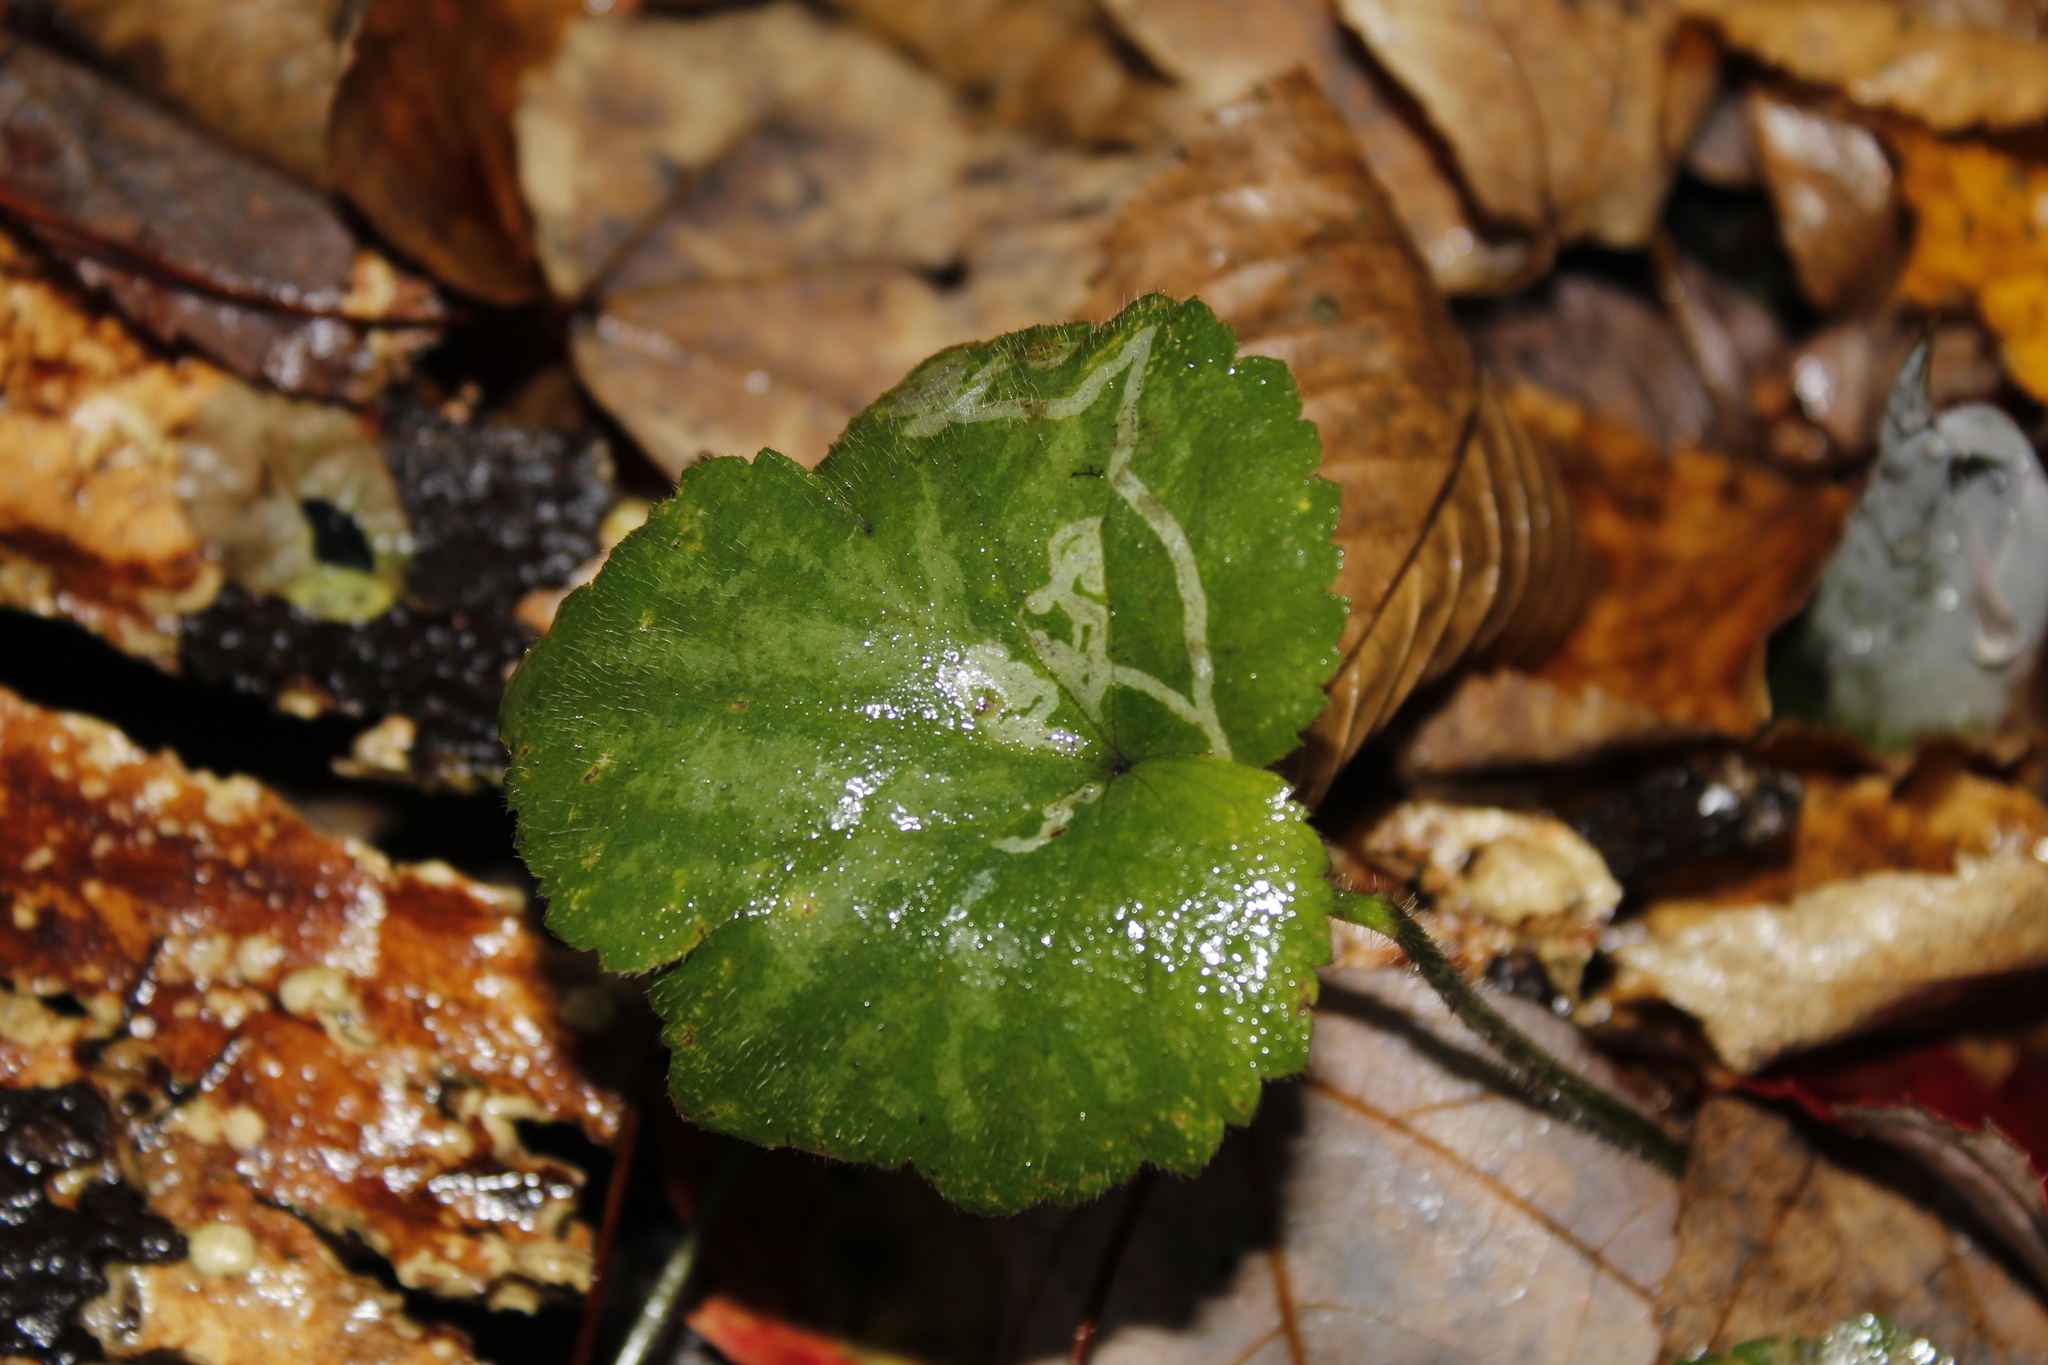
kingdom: Plantae
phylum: Tracheophyta
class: Magnoliopsida
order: Saxifragales
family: Saxifragaceae
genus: Tiarella
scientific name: Tiarella stolonifera
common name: Stoloniferous foamflower
